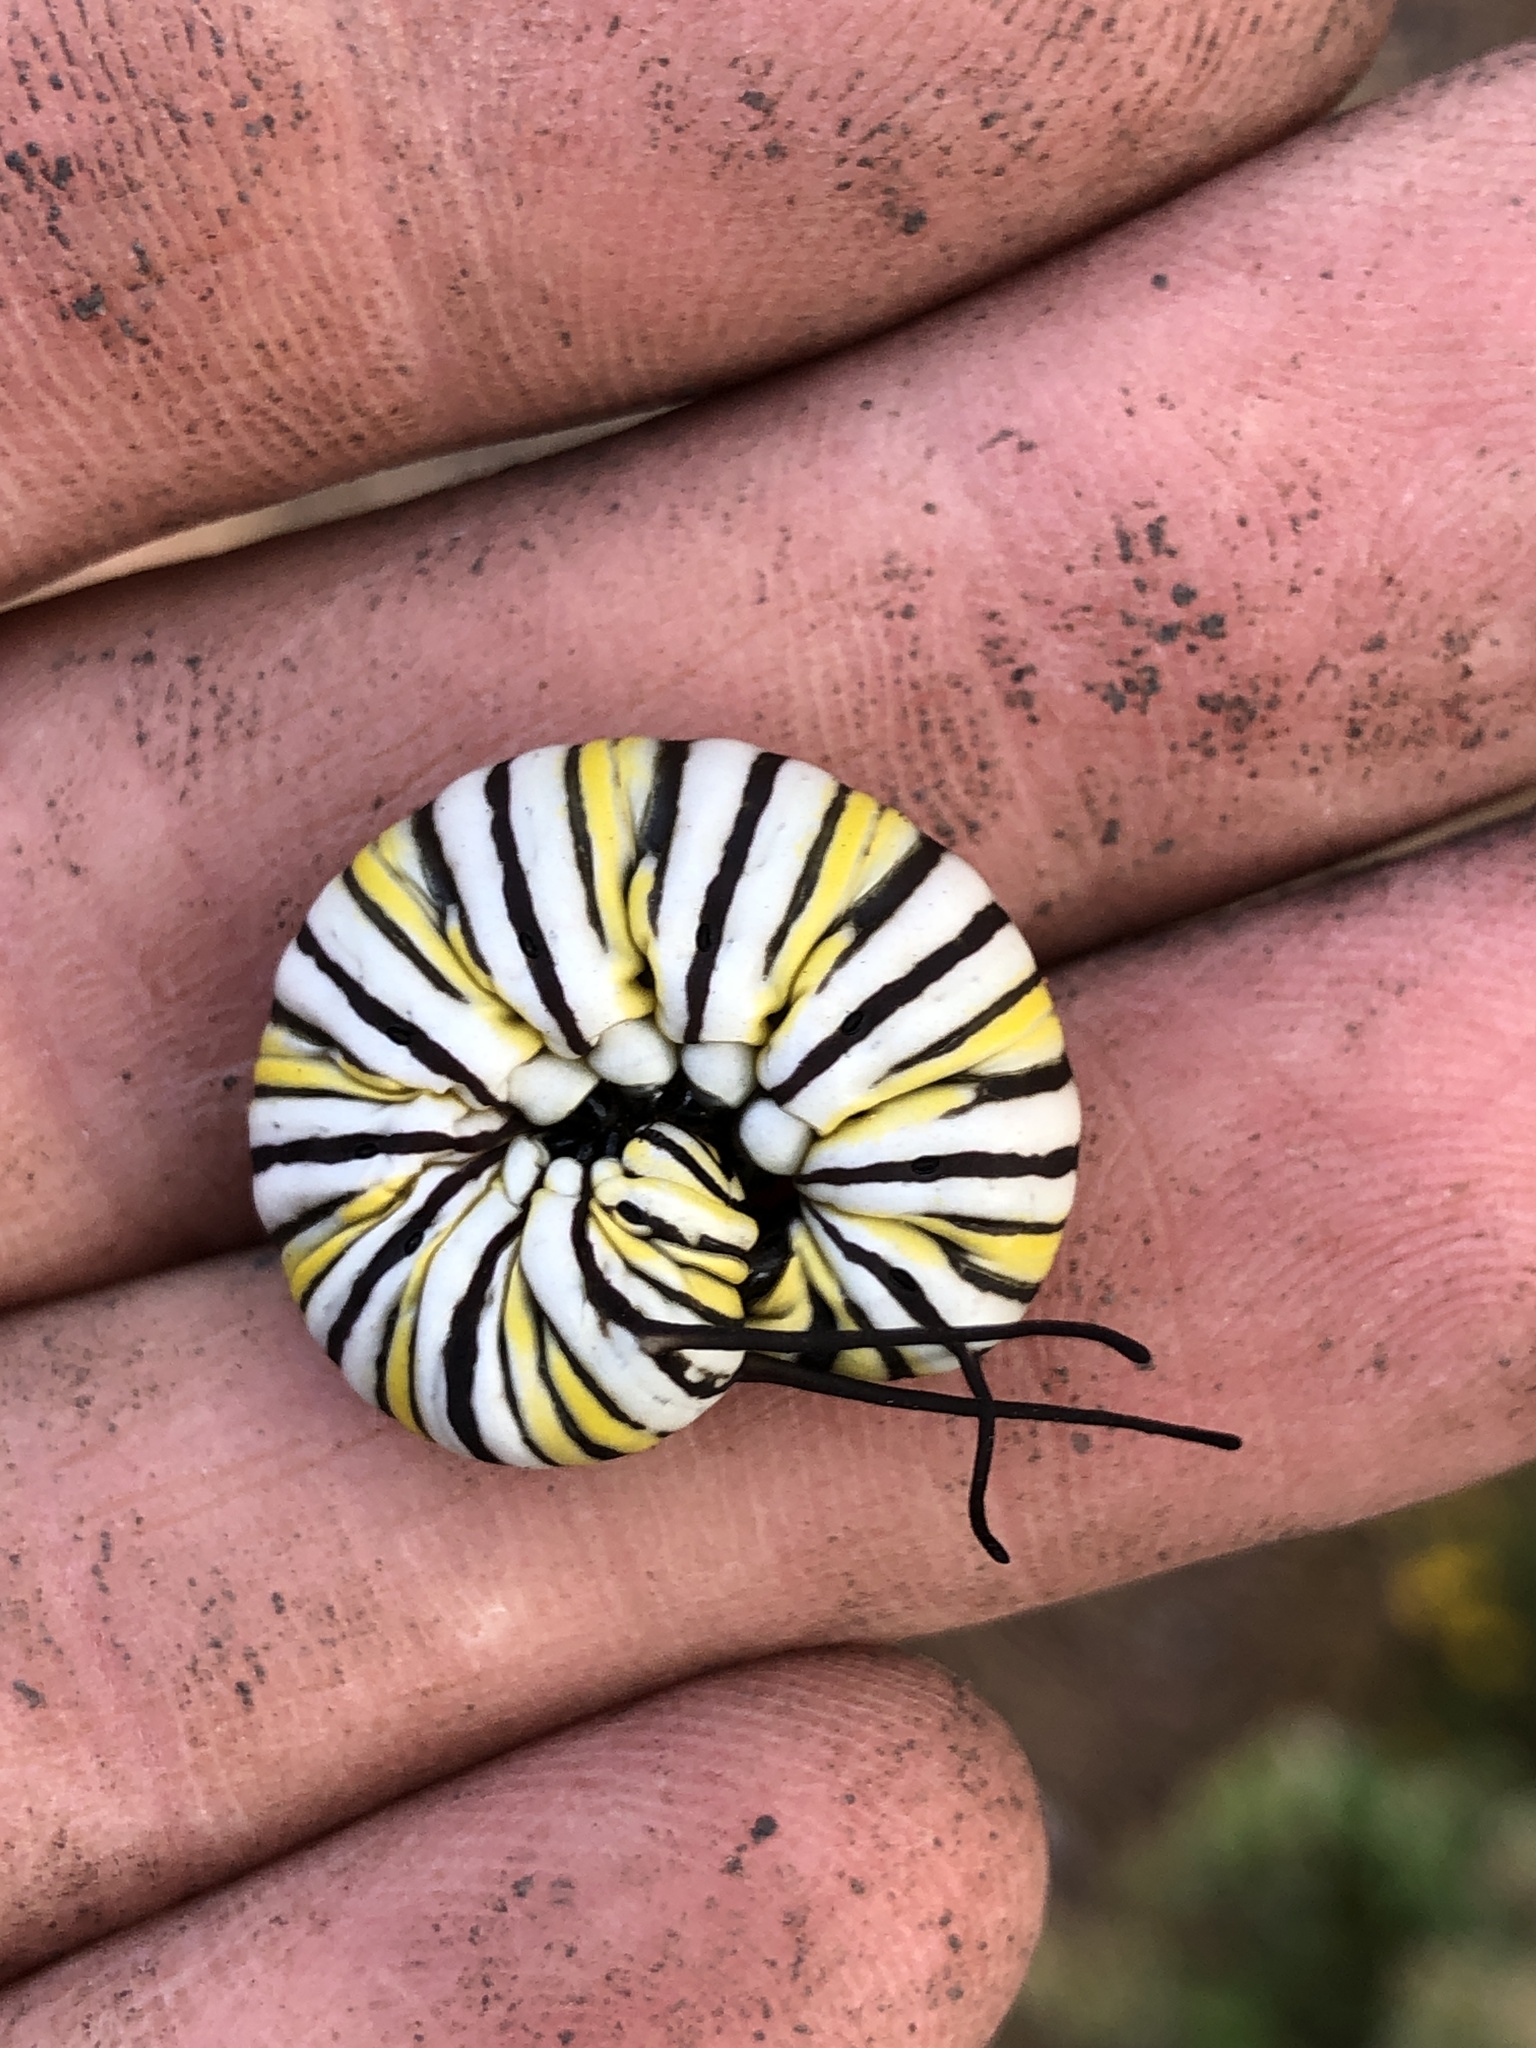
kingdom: Animalia
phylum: Arthropoda
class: Insecta
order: Lepidoptera
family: Nymphalidae
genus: Danaus
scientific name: Danaus plexippus
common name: Monarch
